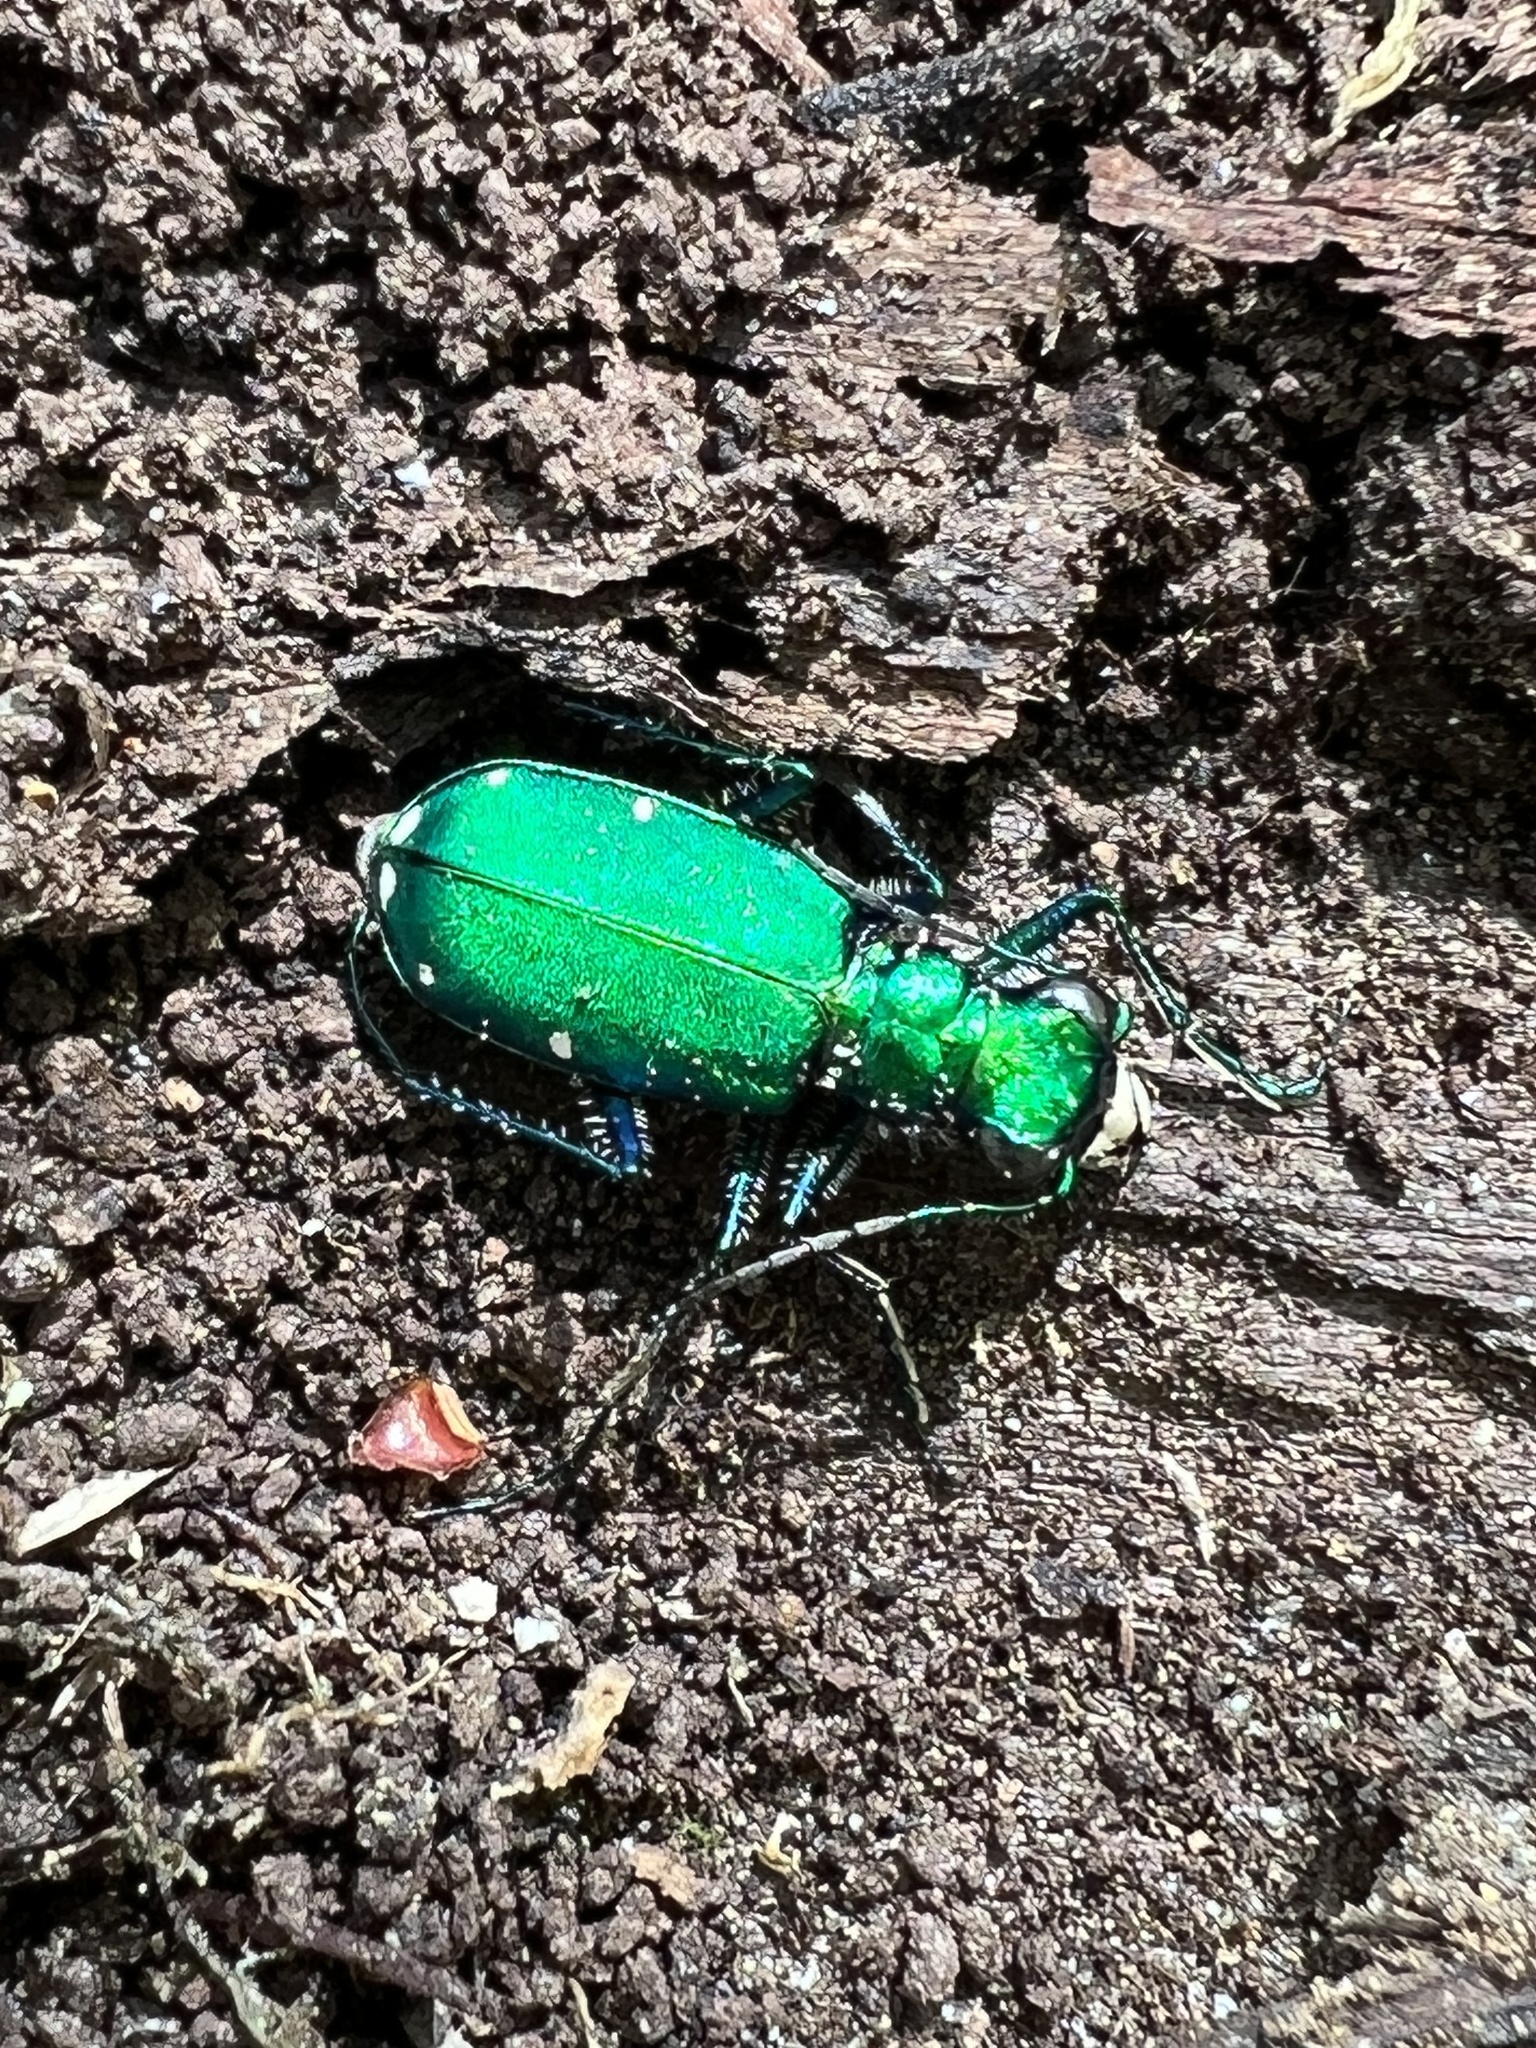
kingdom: Animalia
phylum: Arthropoda
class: Insecta
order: Coleoptera
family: Carabidae
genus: Cicindela
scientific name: Cicindela sexguttata
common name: Six-spotted tiger beetle
